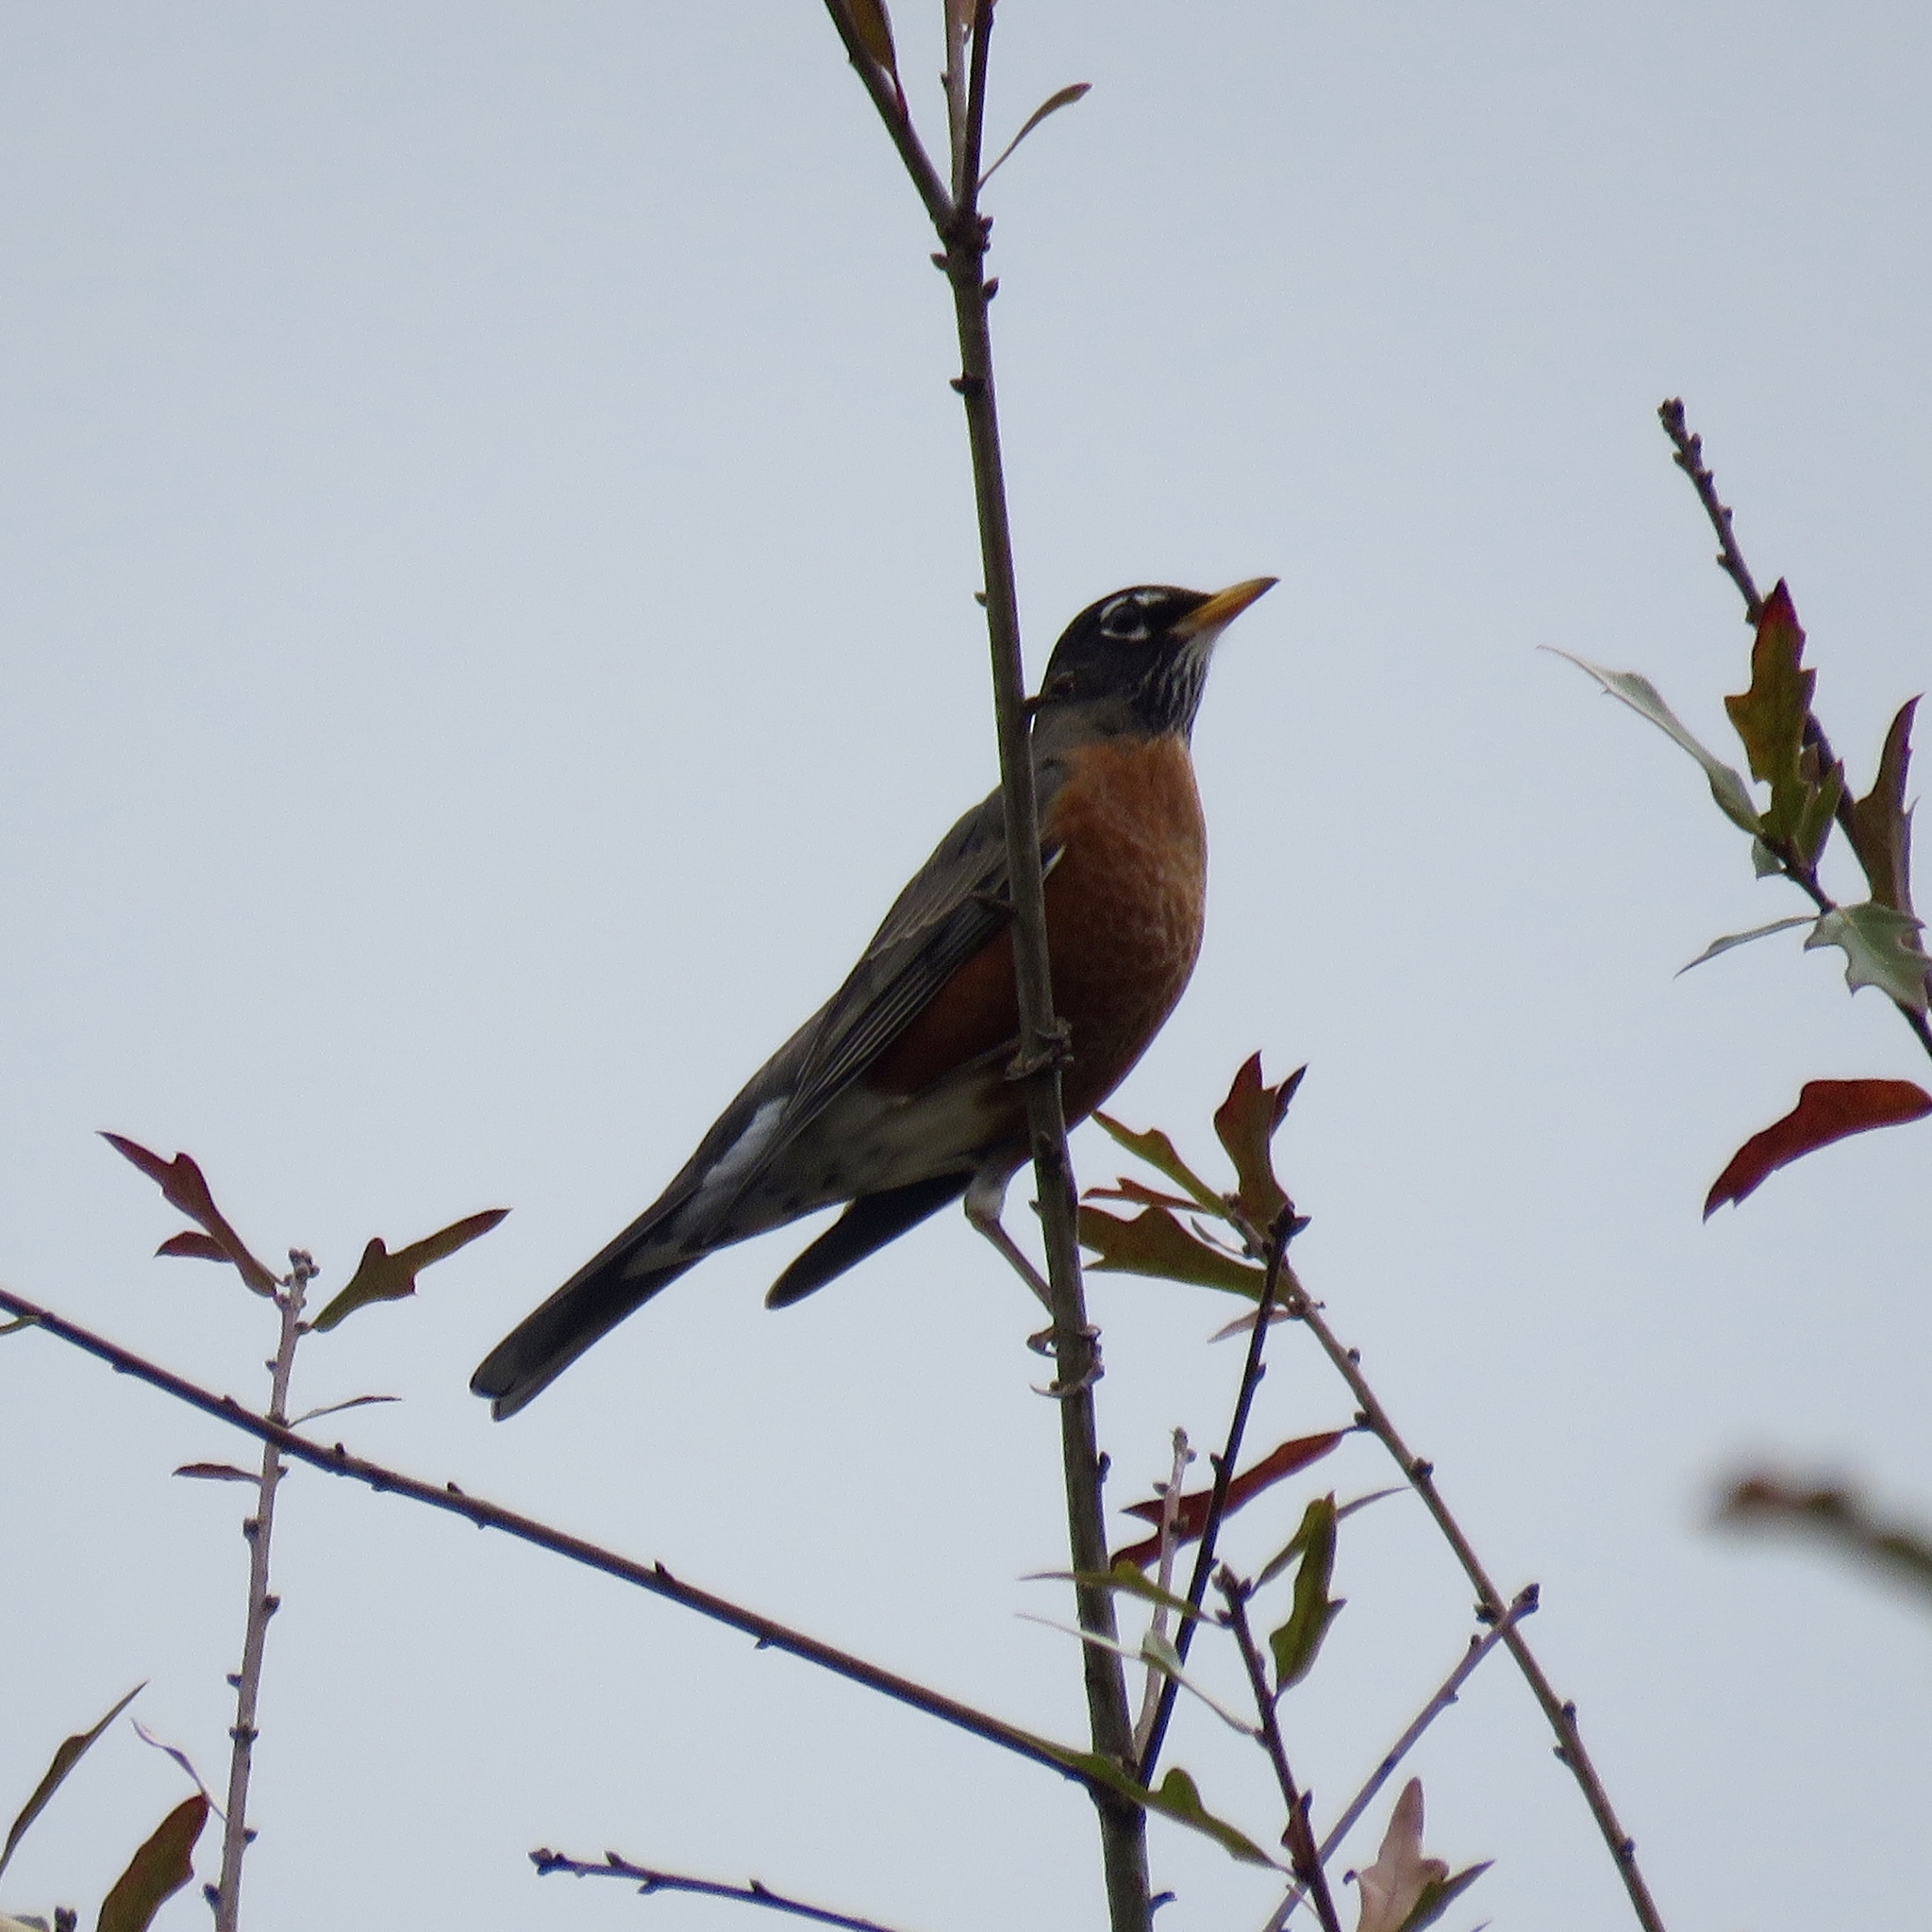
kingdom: Animalia
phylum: Chordata
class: Aves
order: Passeriformes
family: Turdidae
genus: Turdus
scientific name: Turdus migratorius
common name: American robin
